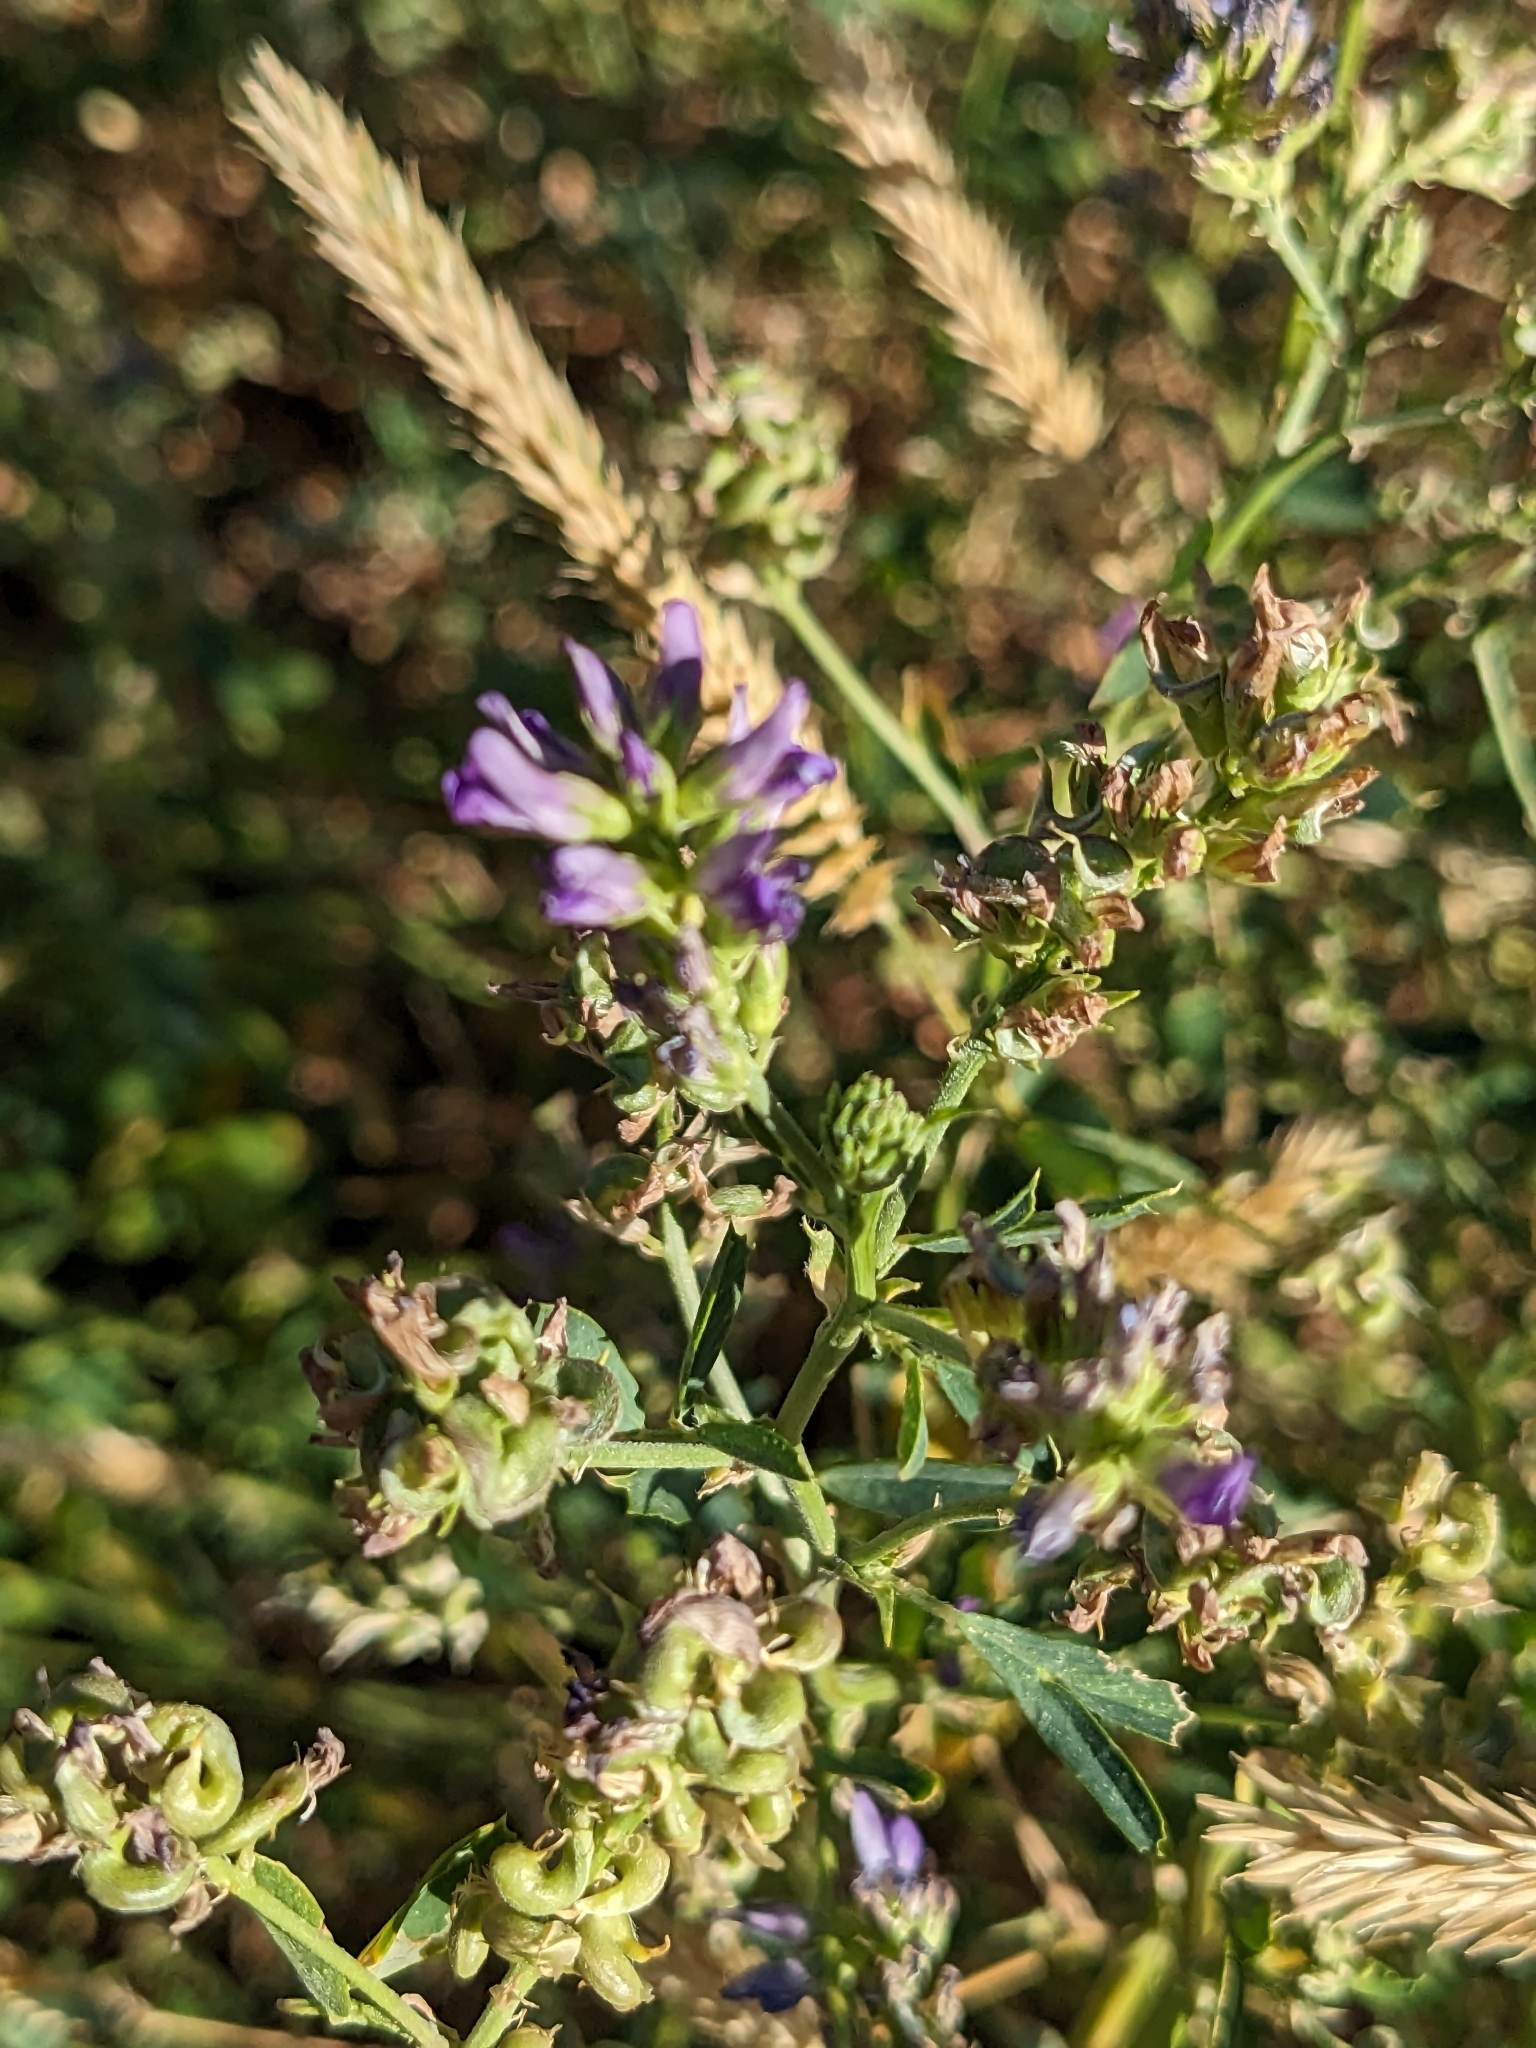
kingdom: Plantae
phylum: Tracheophyta
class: Magnoliopsida
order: Fabales
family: Fabaceae
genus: Medicago
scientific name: Medicago sativa
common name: Alfalfa
